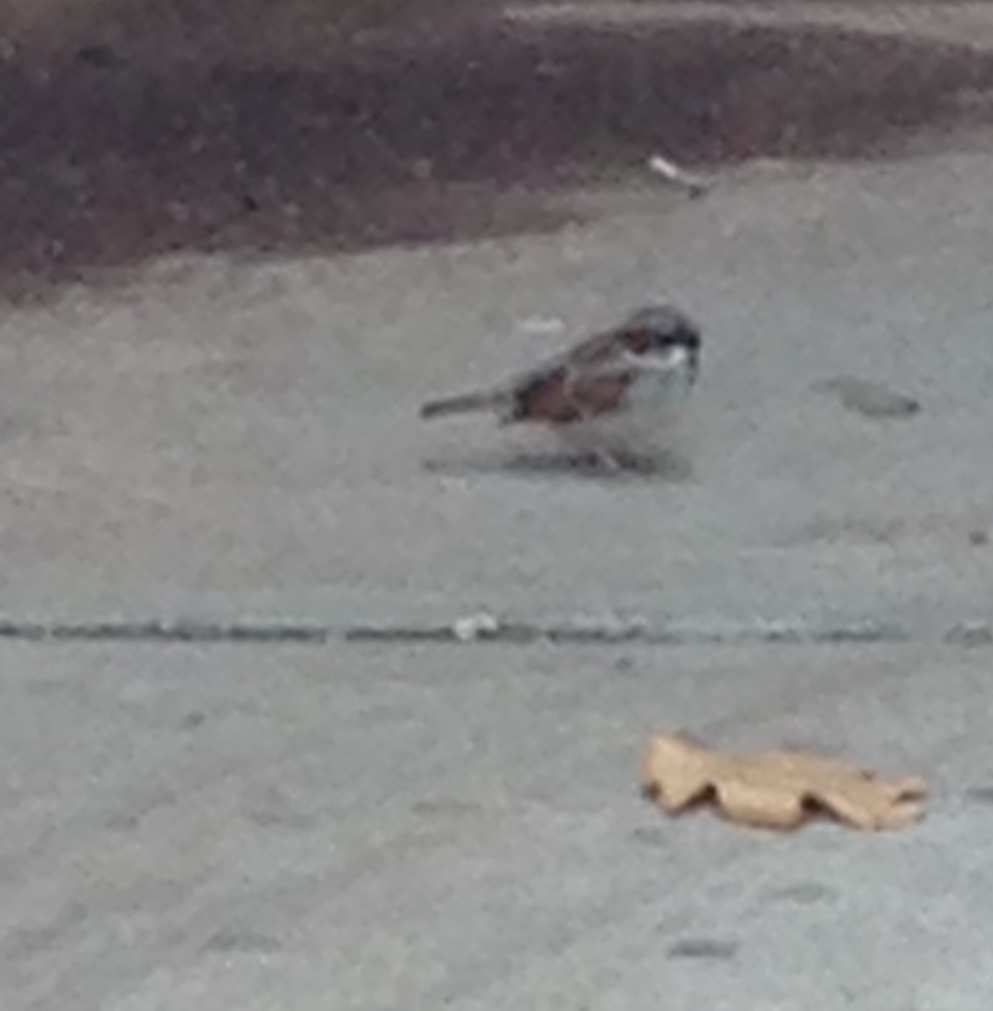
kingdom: Animalia
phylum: Chordata
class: Aves
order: Passeriformes
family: Passeridae
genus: Passer
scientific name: Passer domesticus
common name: House sparrow
